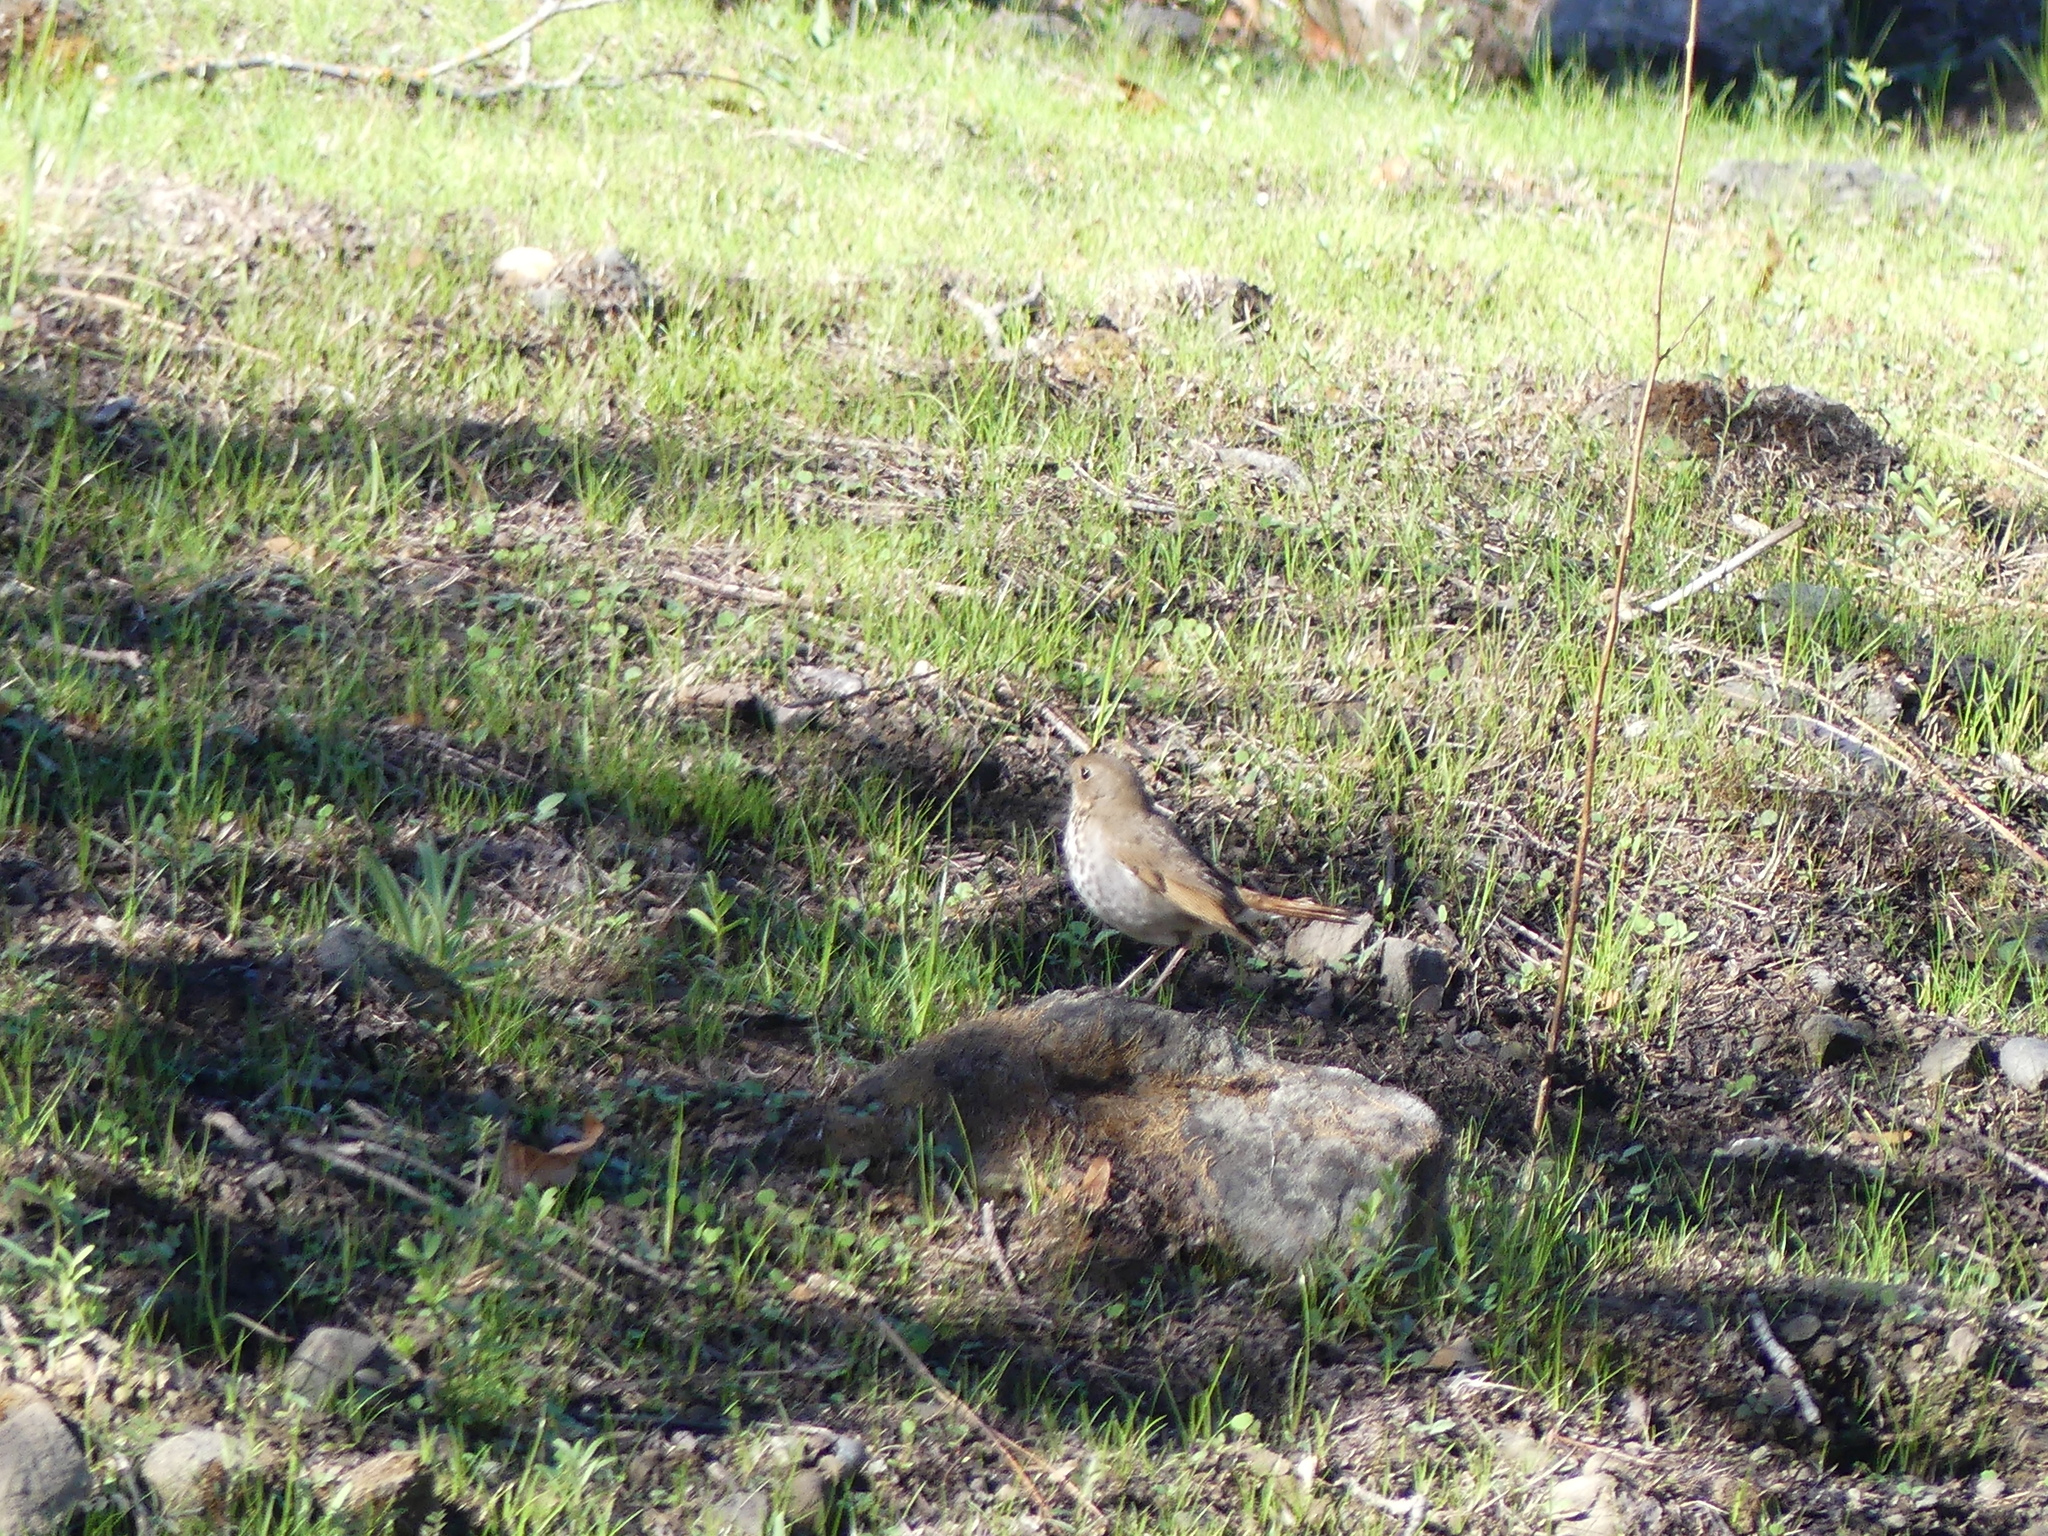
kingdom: Animalia
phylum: Chordata
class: Aves
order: Passeriformes
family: Turdidae
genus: Catharus
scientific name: Catharus guttatus
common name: Hermit thrush
